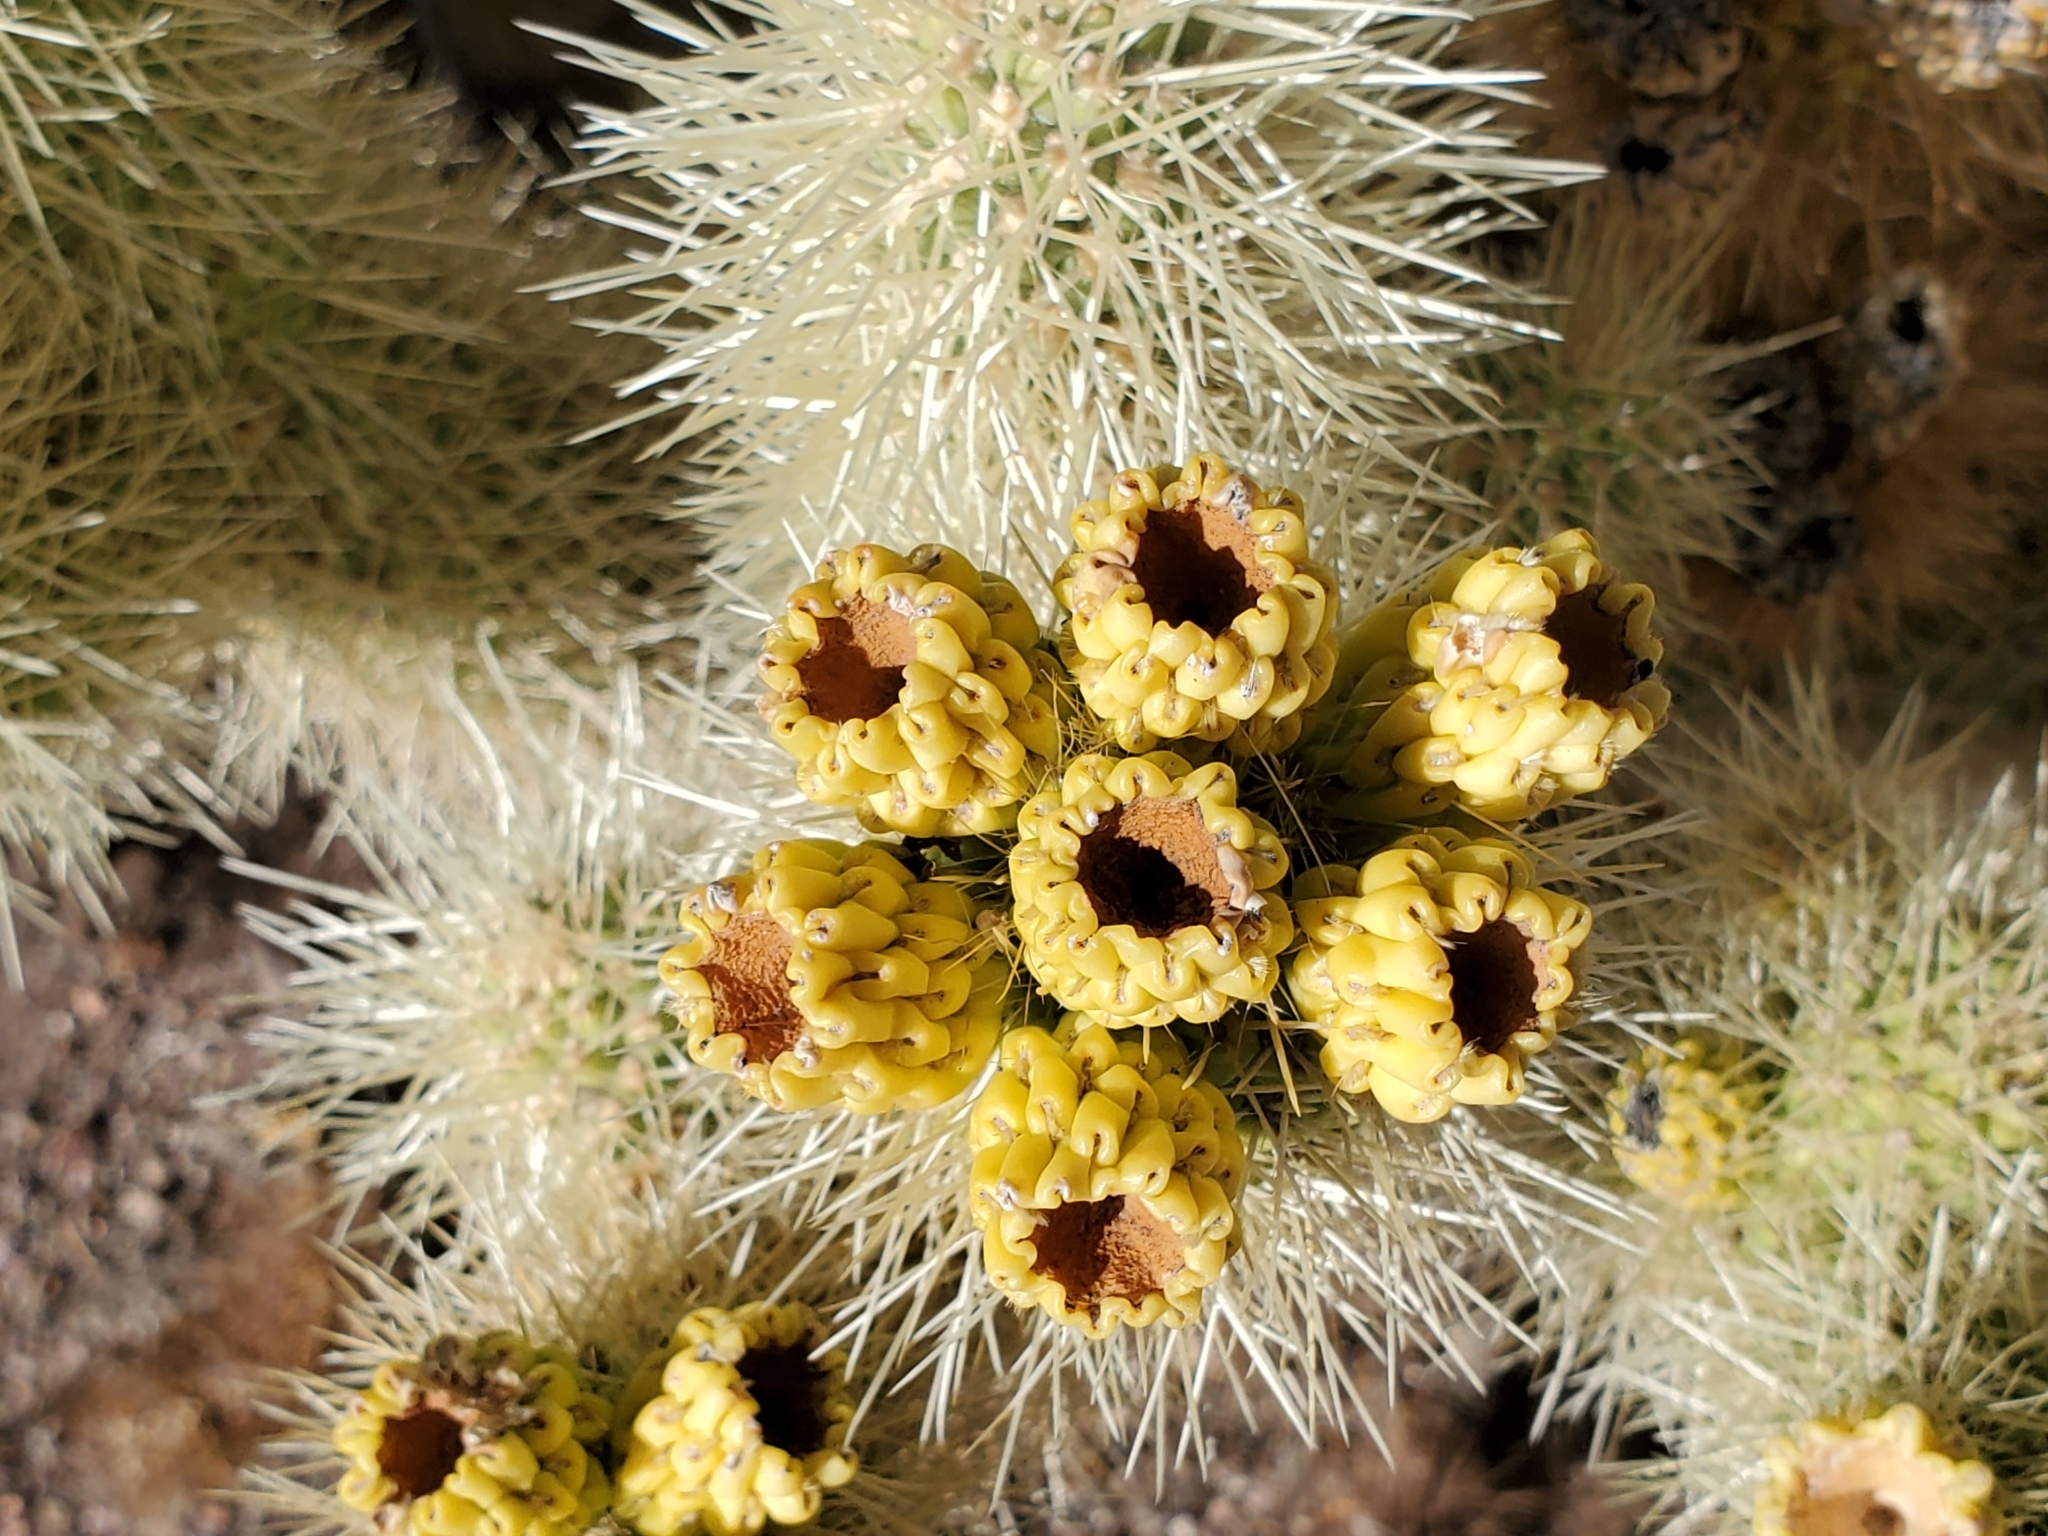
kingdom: Plantae
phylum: Tracheophyta
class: Magnoliopsida
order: Caryophyllales
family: Cactaceae
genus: Cylindropuntia
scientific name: Cylindropuntia fosbergii
